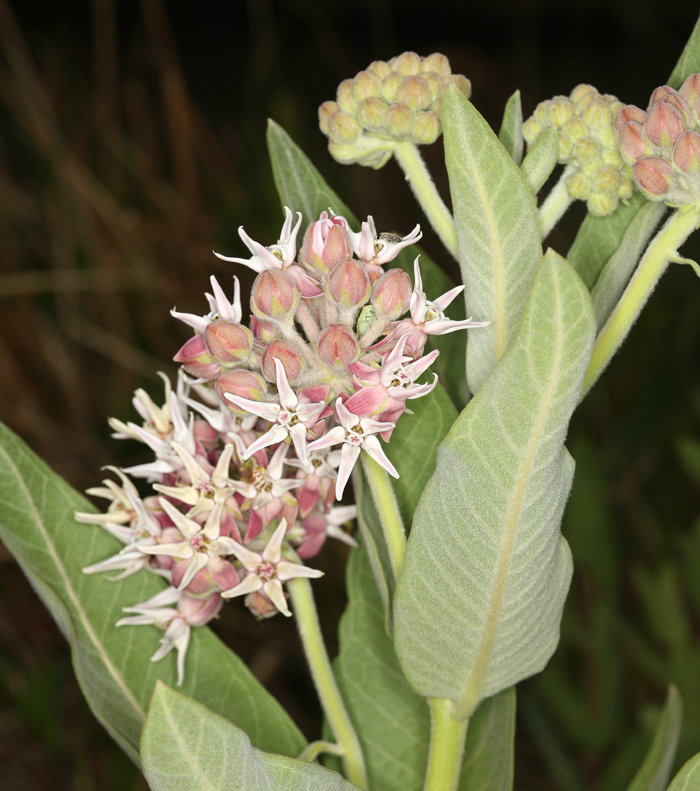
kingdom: Plantae
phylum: Tracheophyta
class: Magnoliopsida
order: Gentianales
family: Apocynaceae
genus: Asclepias
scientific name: Asclepias speciosa
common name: Showy milkweed
